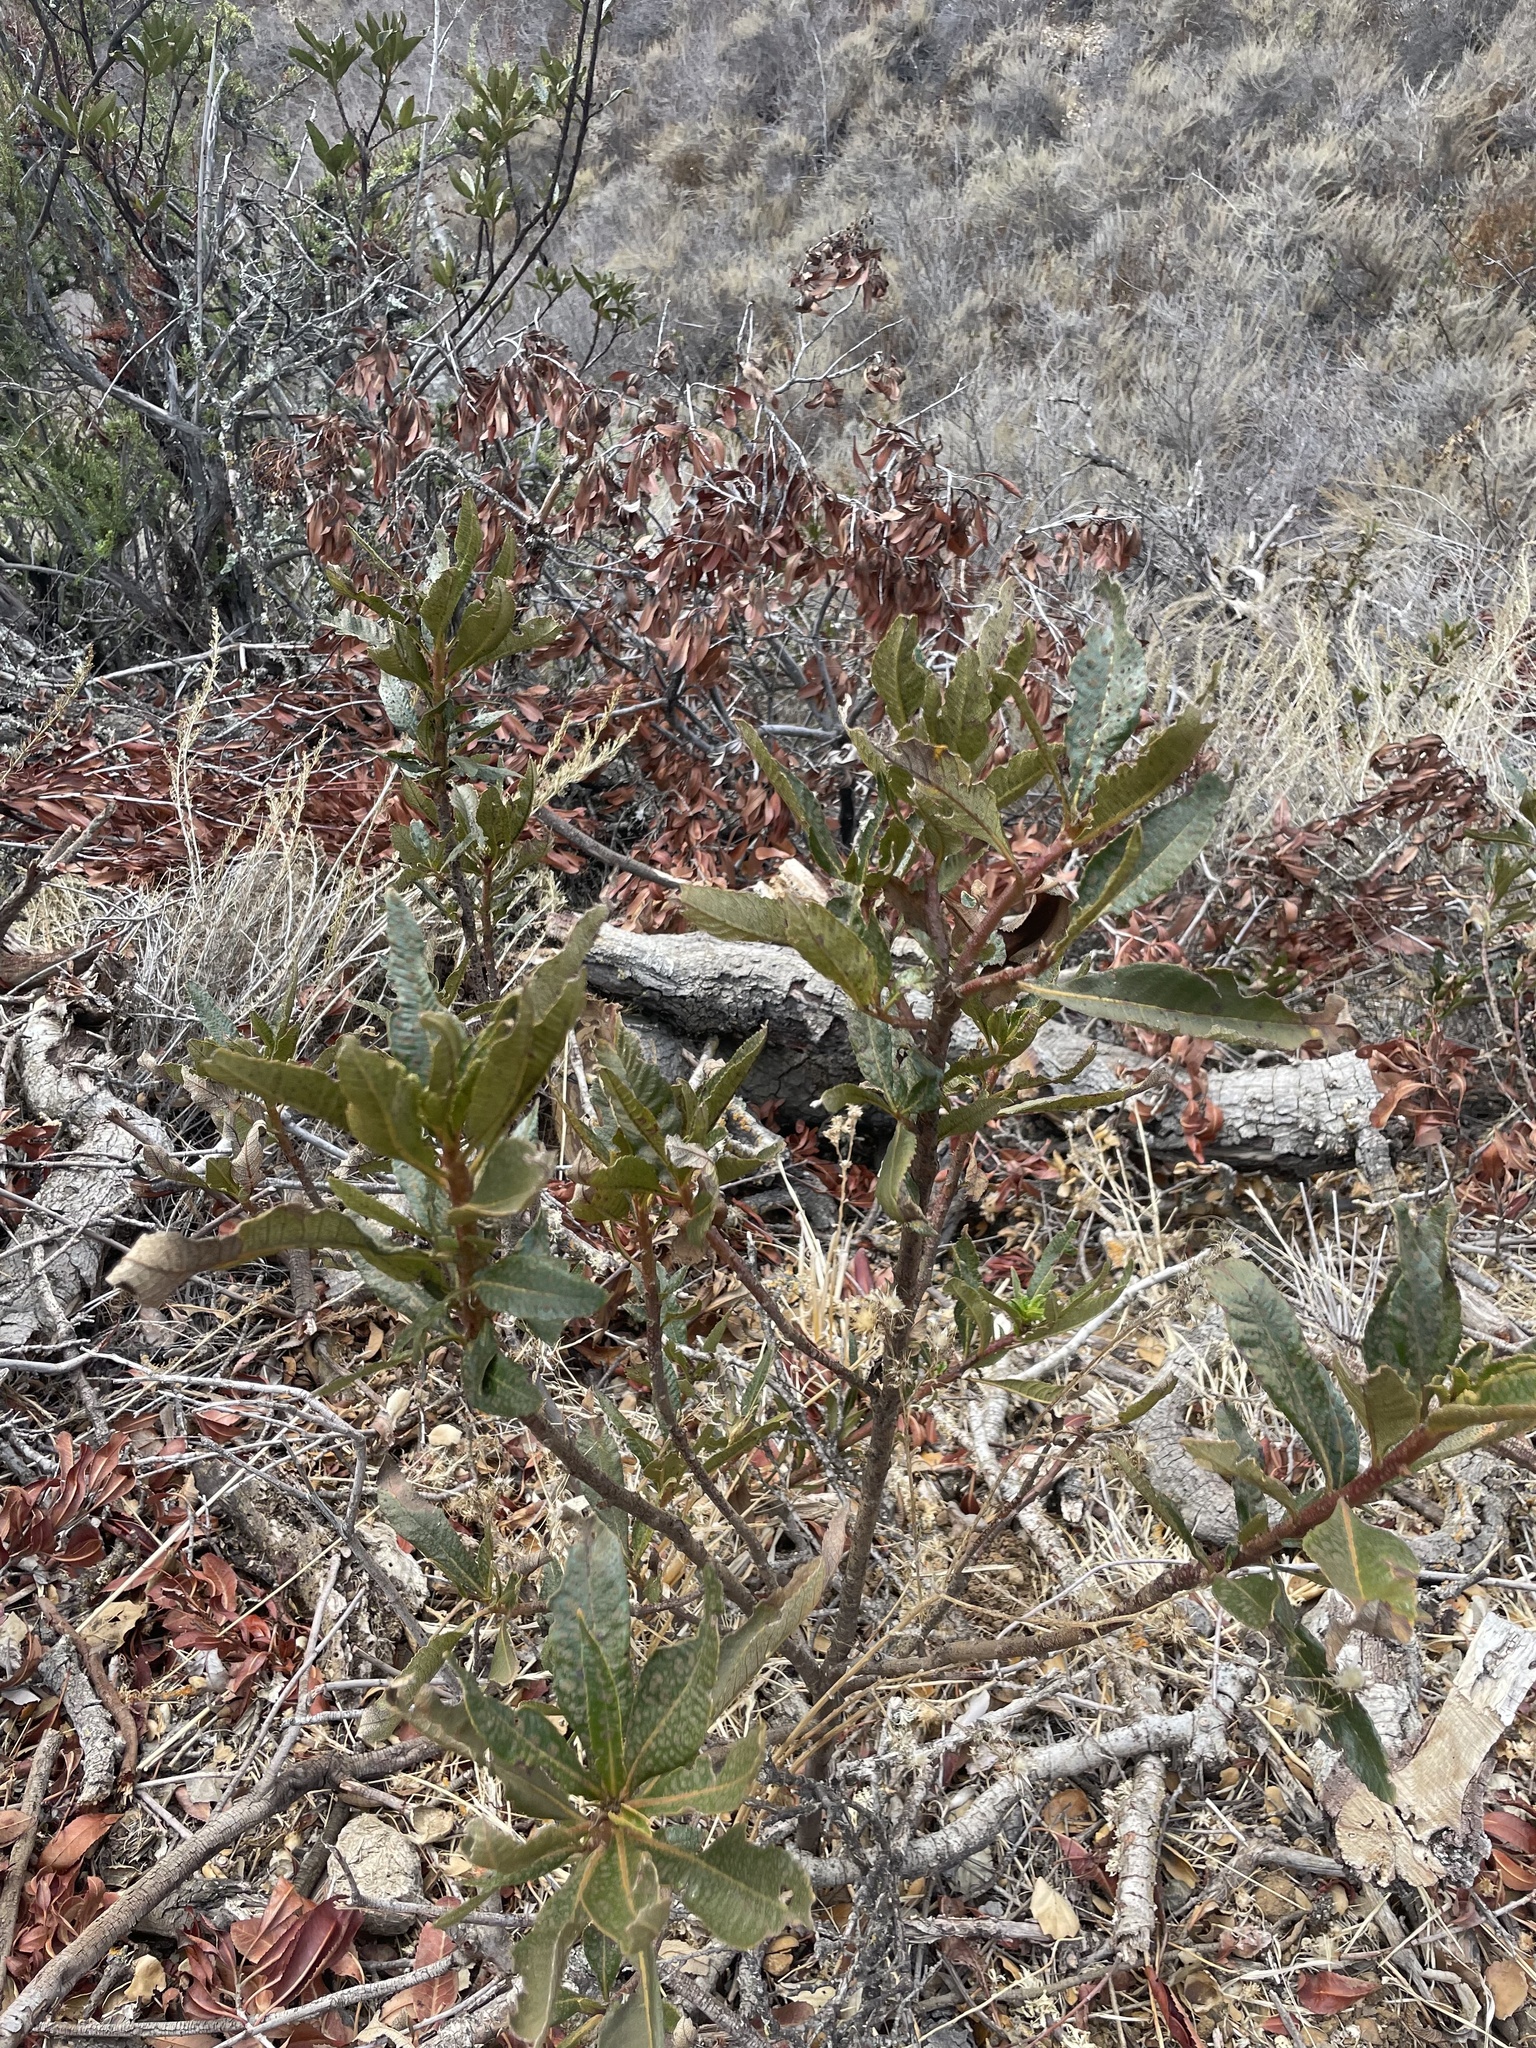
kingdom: Plantae
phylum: Tracheophyta
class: Magnoliopsida
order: Boraginales
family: Namaceae
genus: Eriodictyon
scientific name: Eriodictyon californicum
